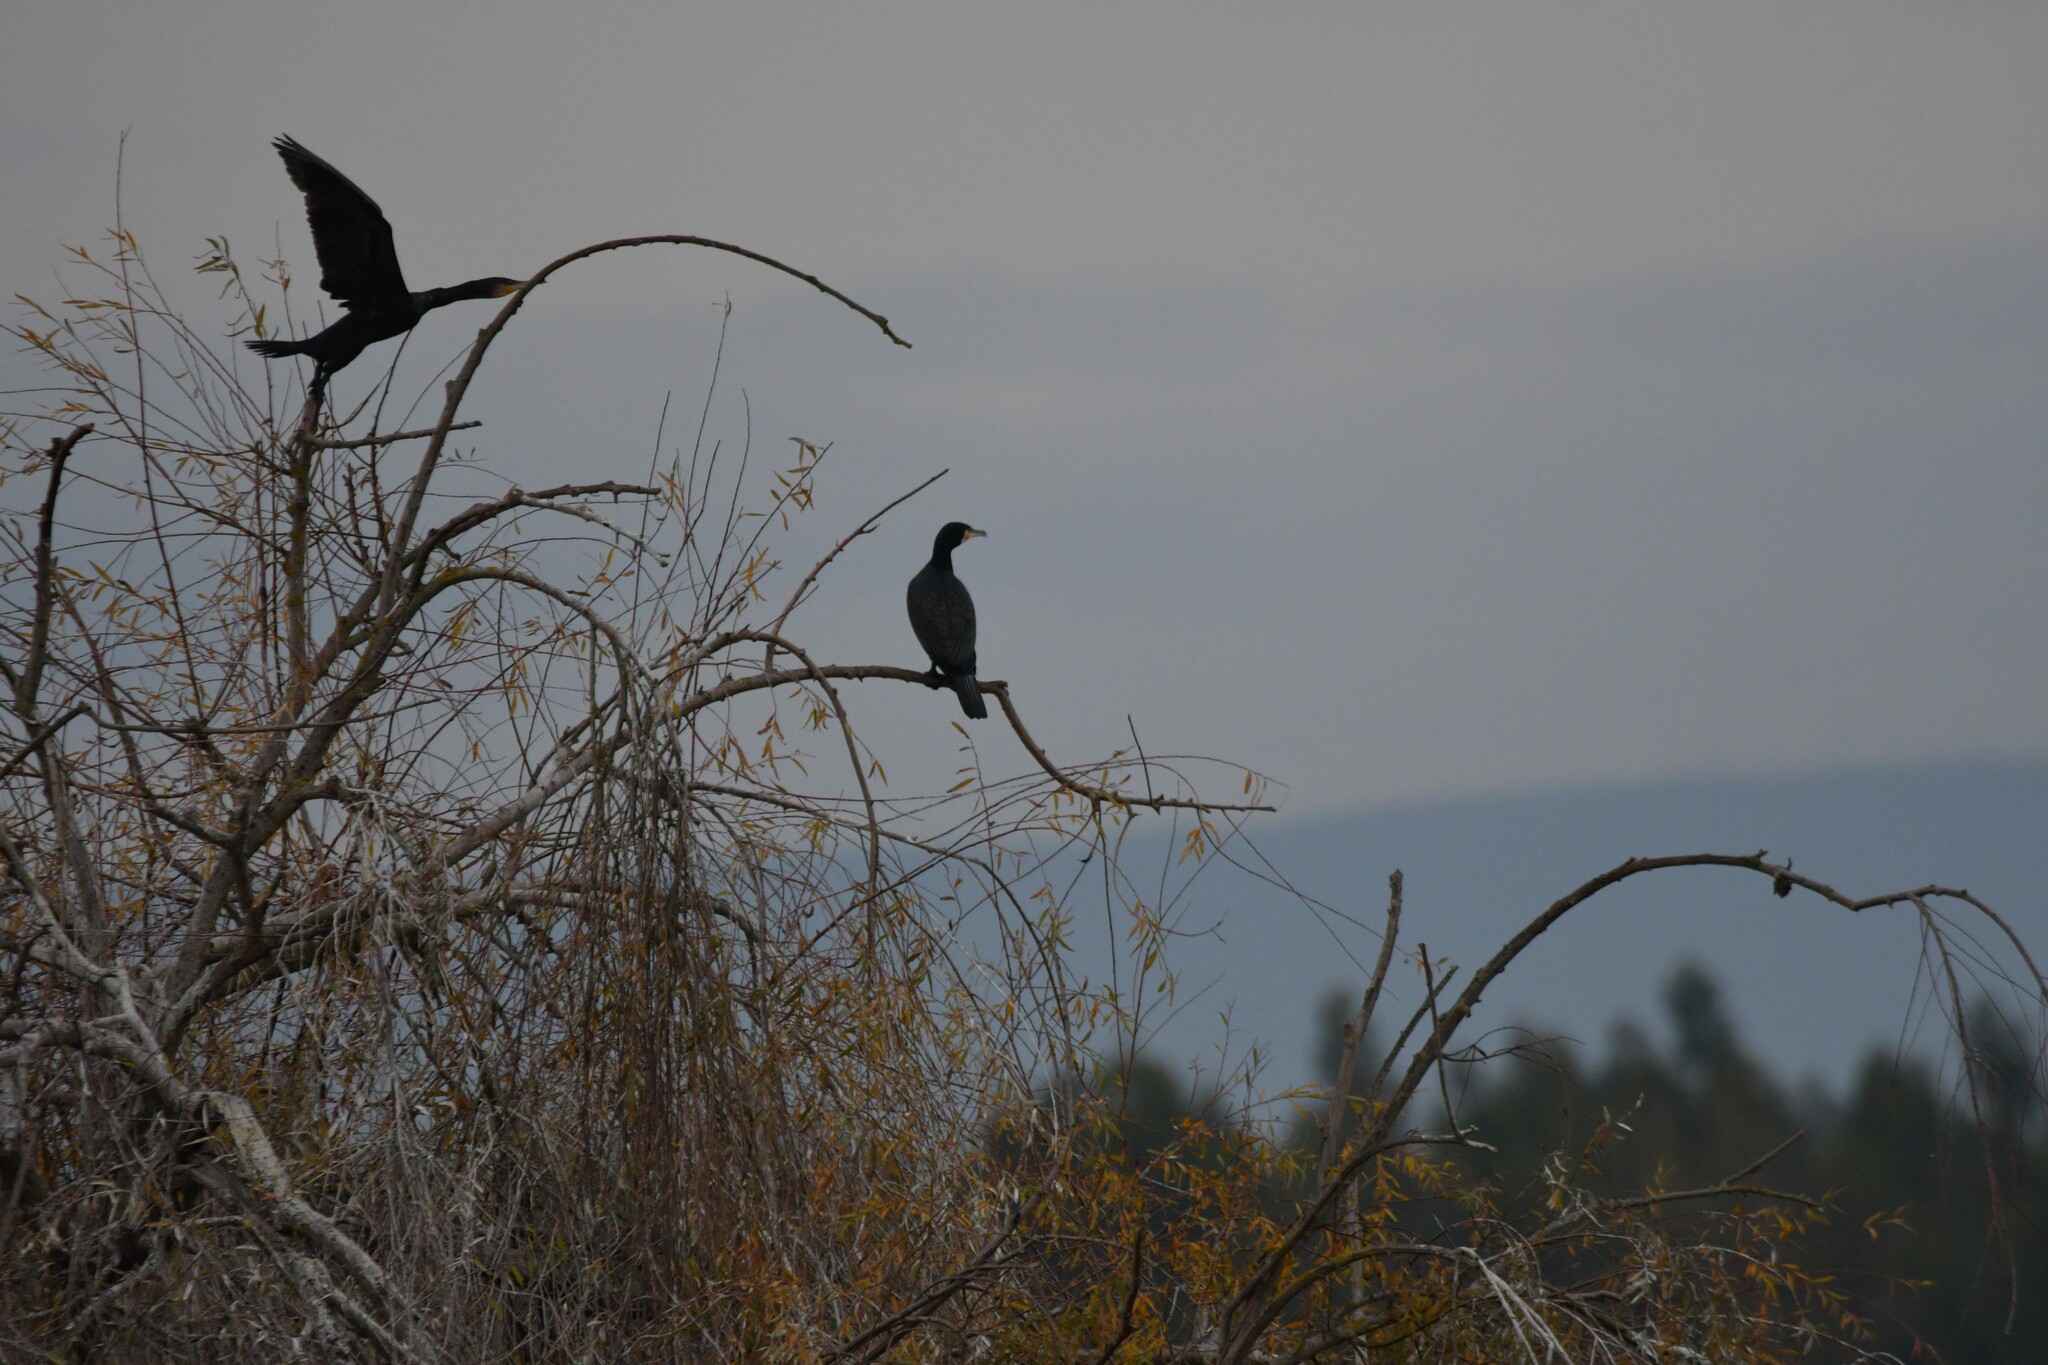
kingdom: Animalia
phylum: Chordata
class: Aves
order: Suliformes
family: Phalacrocoracidae
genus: Phalacrocorax
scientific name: Phalacrocorax carbo
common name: Great cormorant
